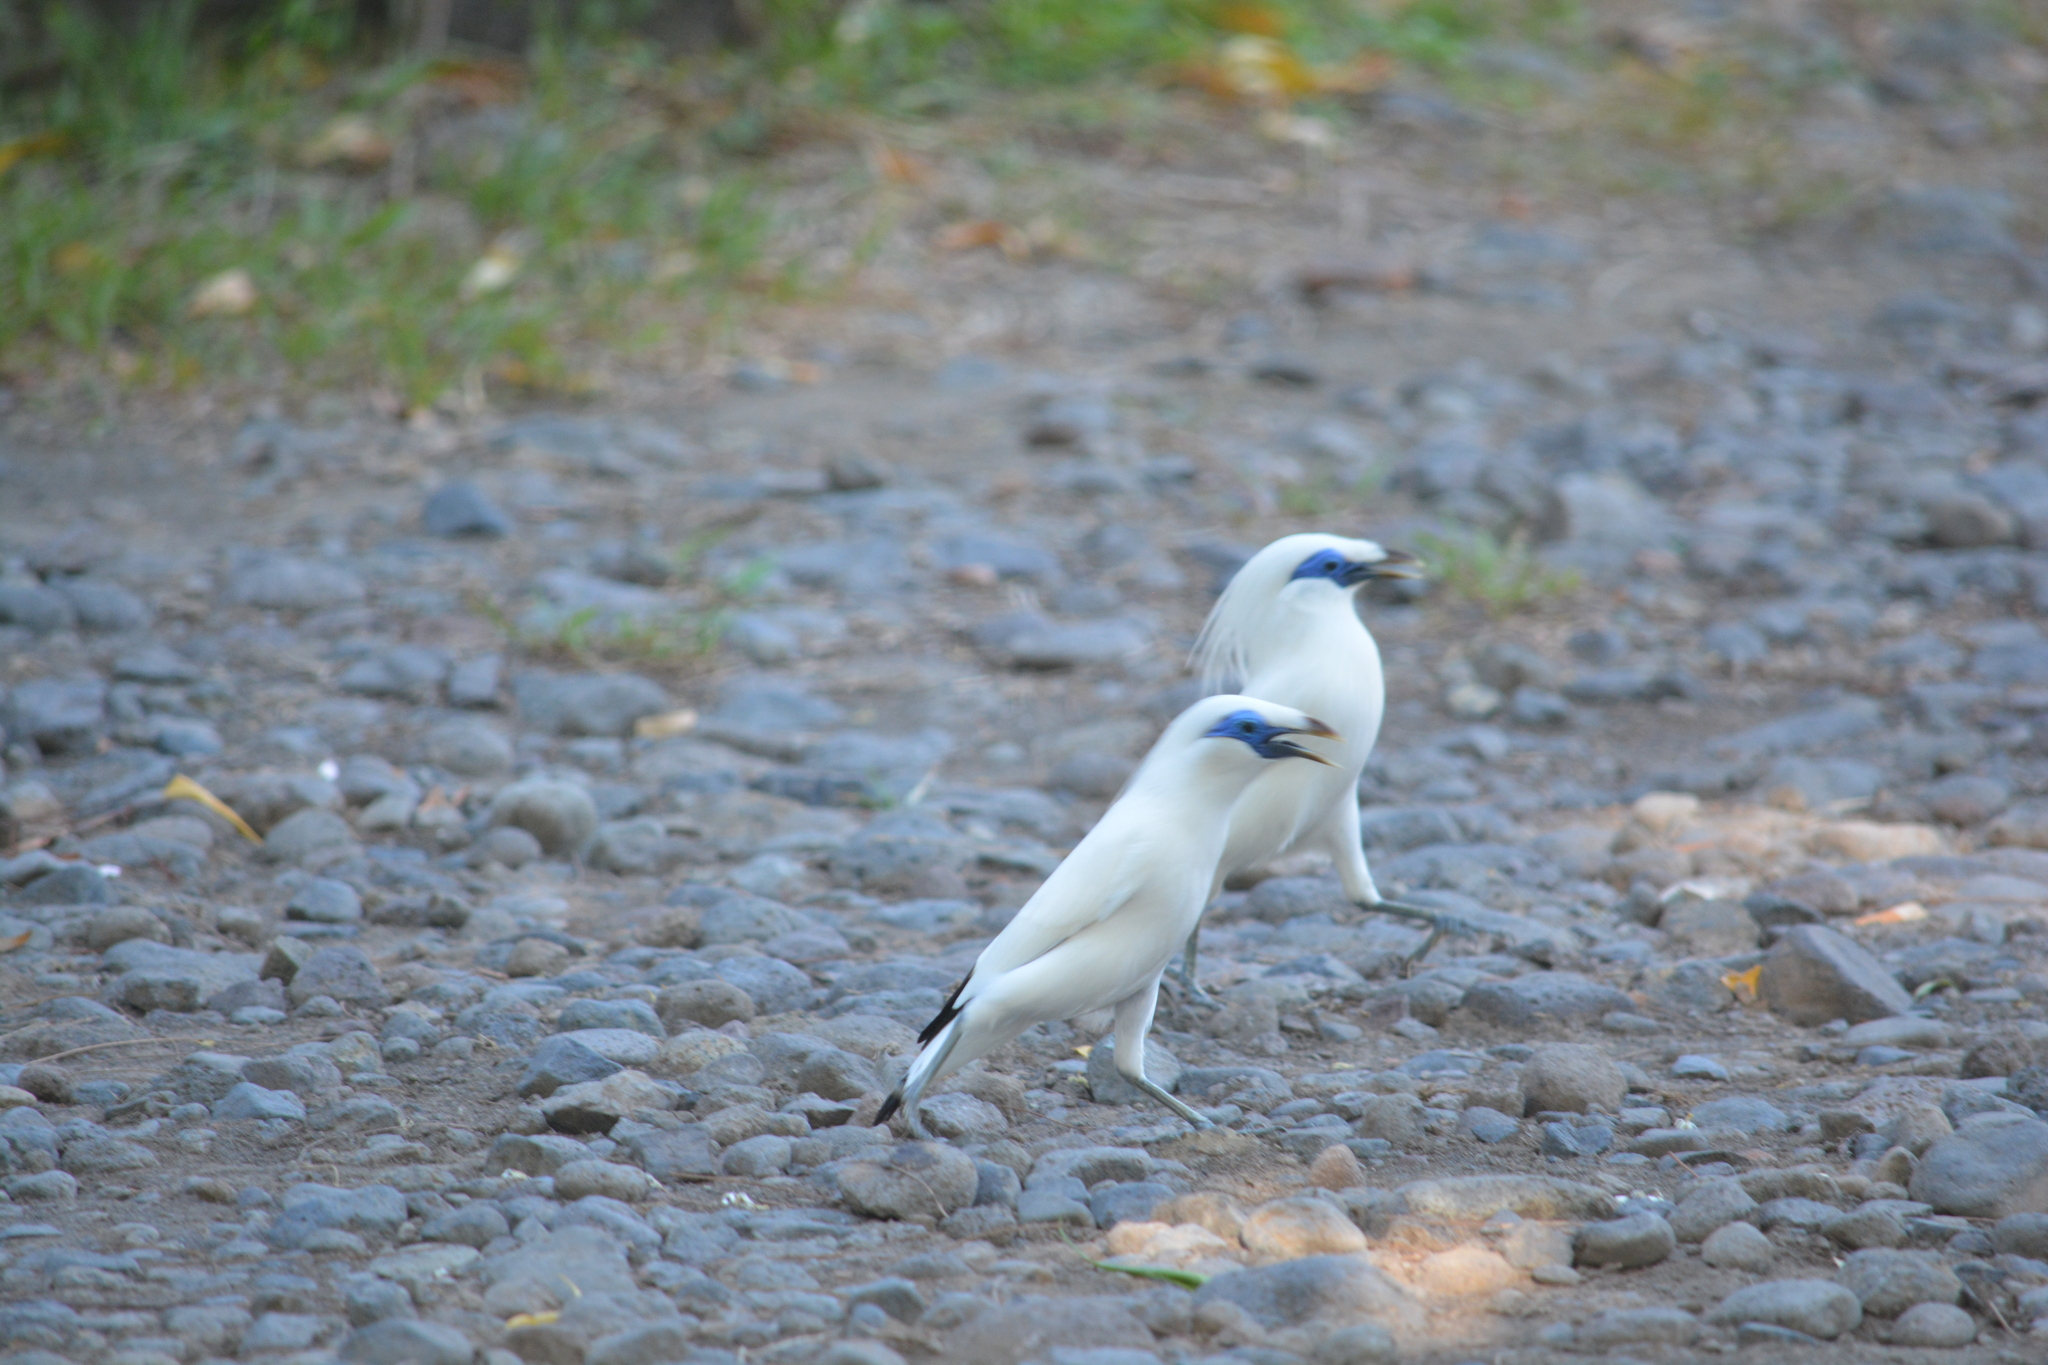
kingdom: Animalia
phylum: Chordata
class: Aves
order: Passeriformes
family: Sturnidae
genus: Leucopsar
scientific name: Leucopsar rothschildi
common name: Bali myna
